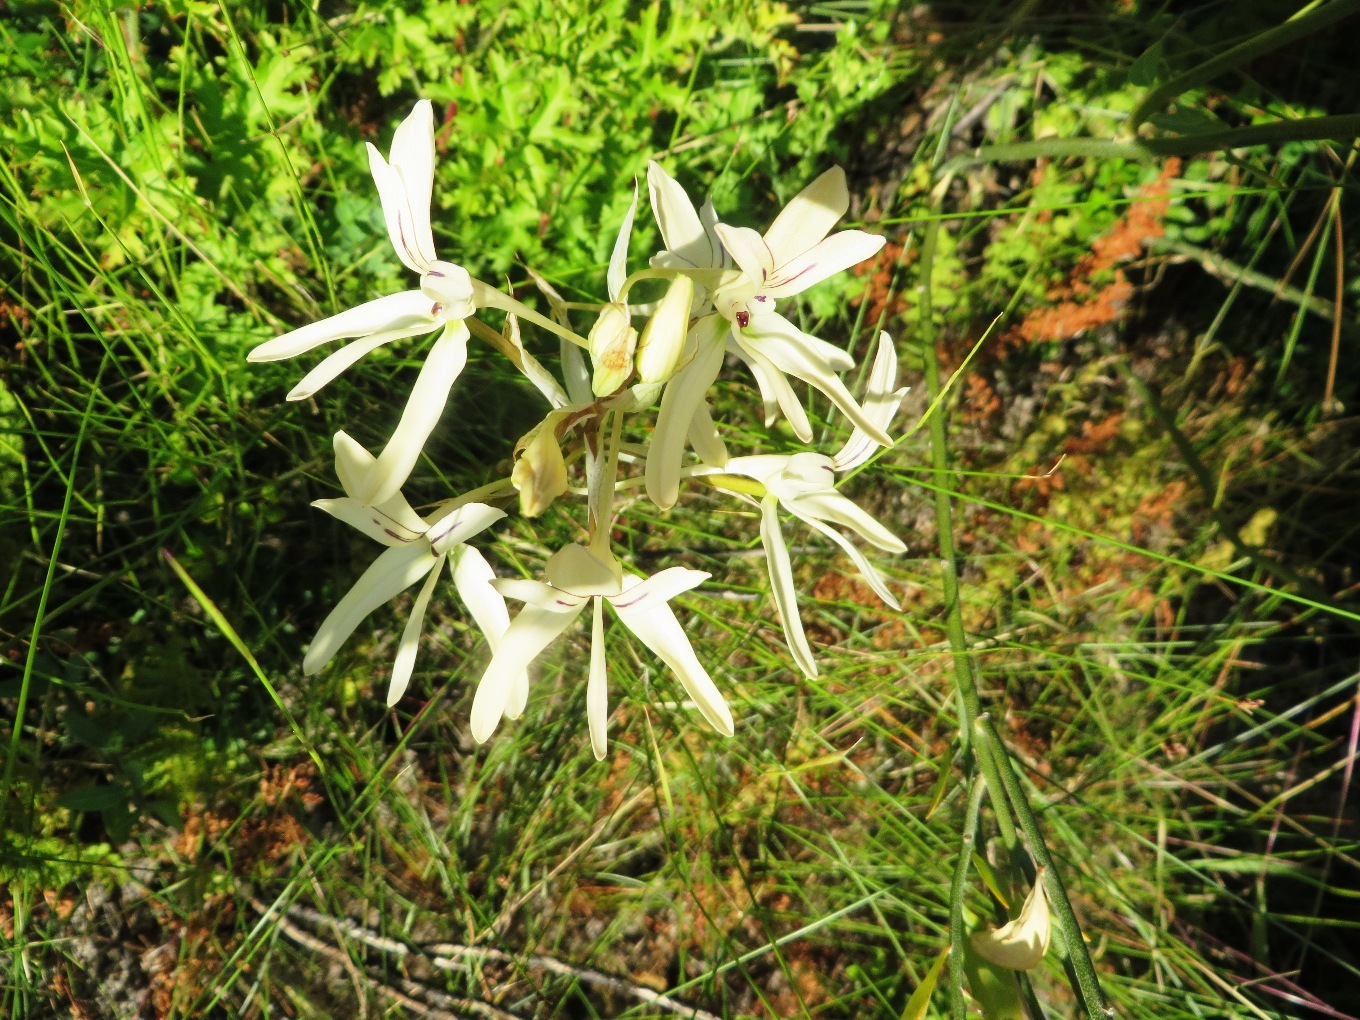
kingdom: Plantae
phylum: Tracheophyta
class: Liliopsida
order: Asparagales
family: Orchidaceae
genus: Disa
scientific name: Disa harveyana
